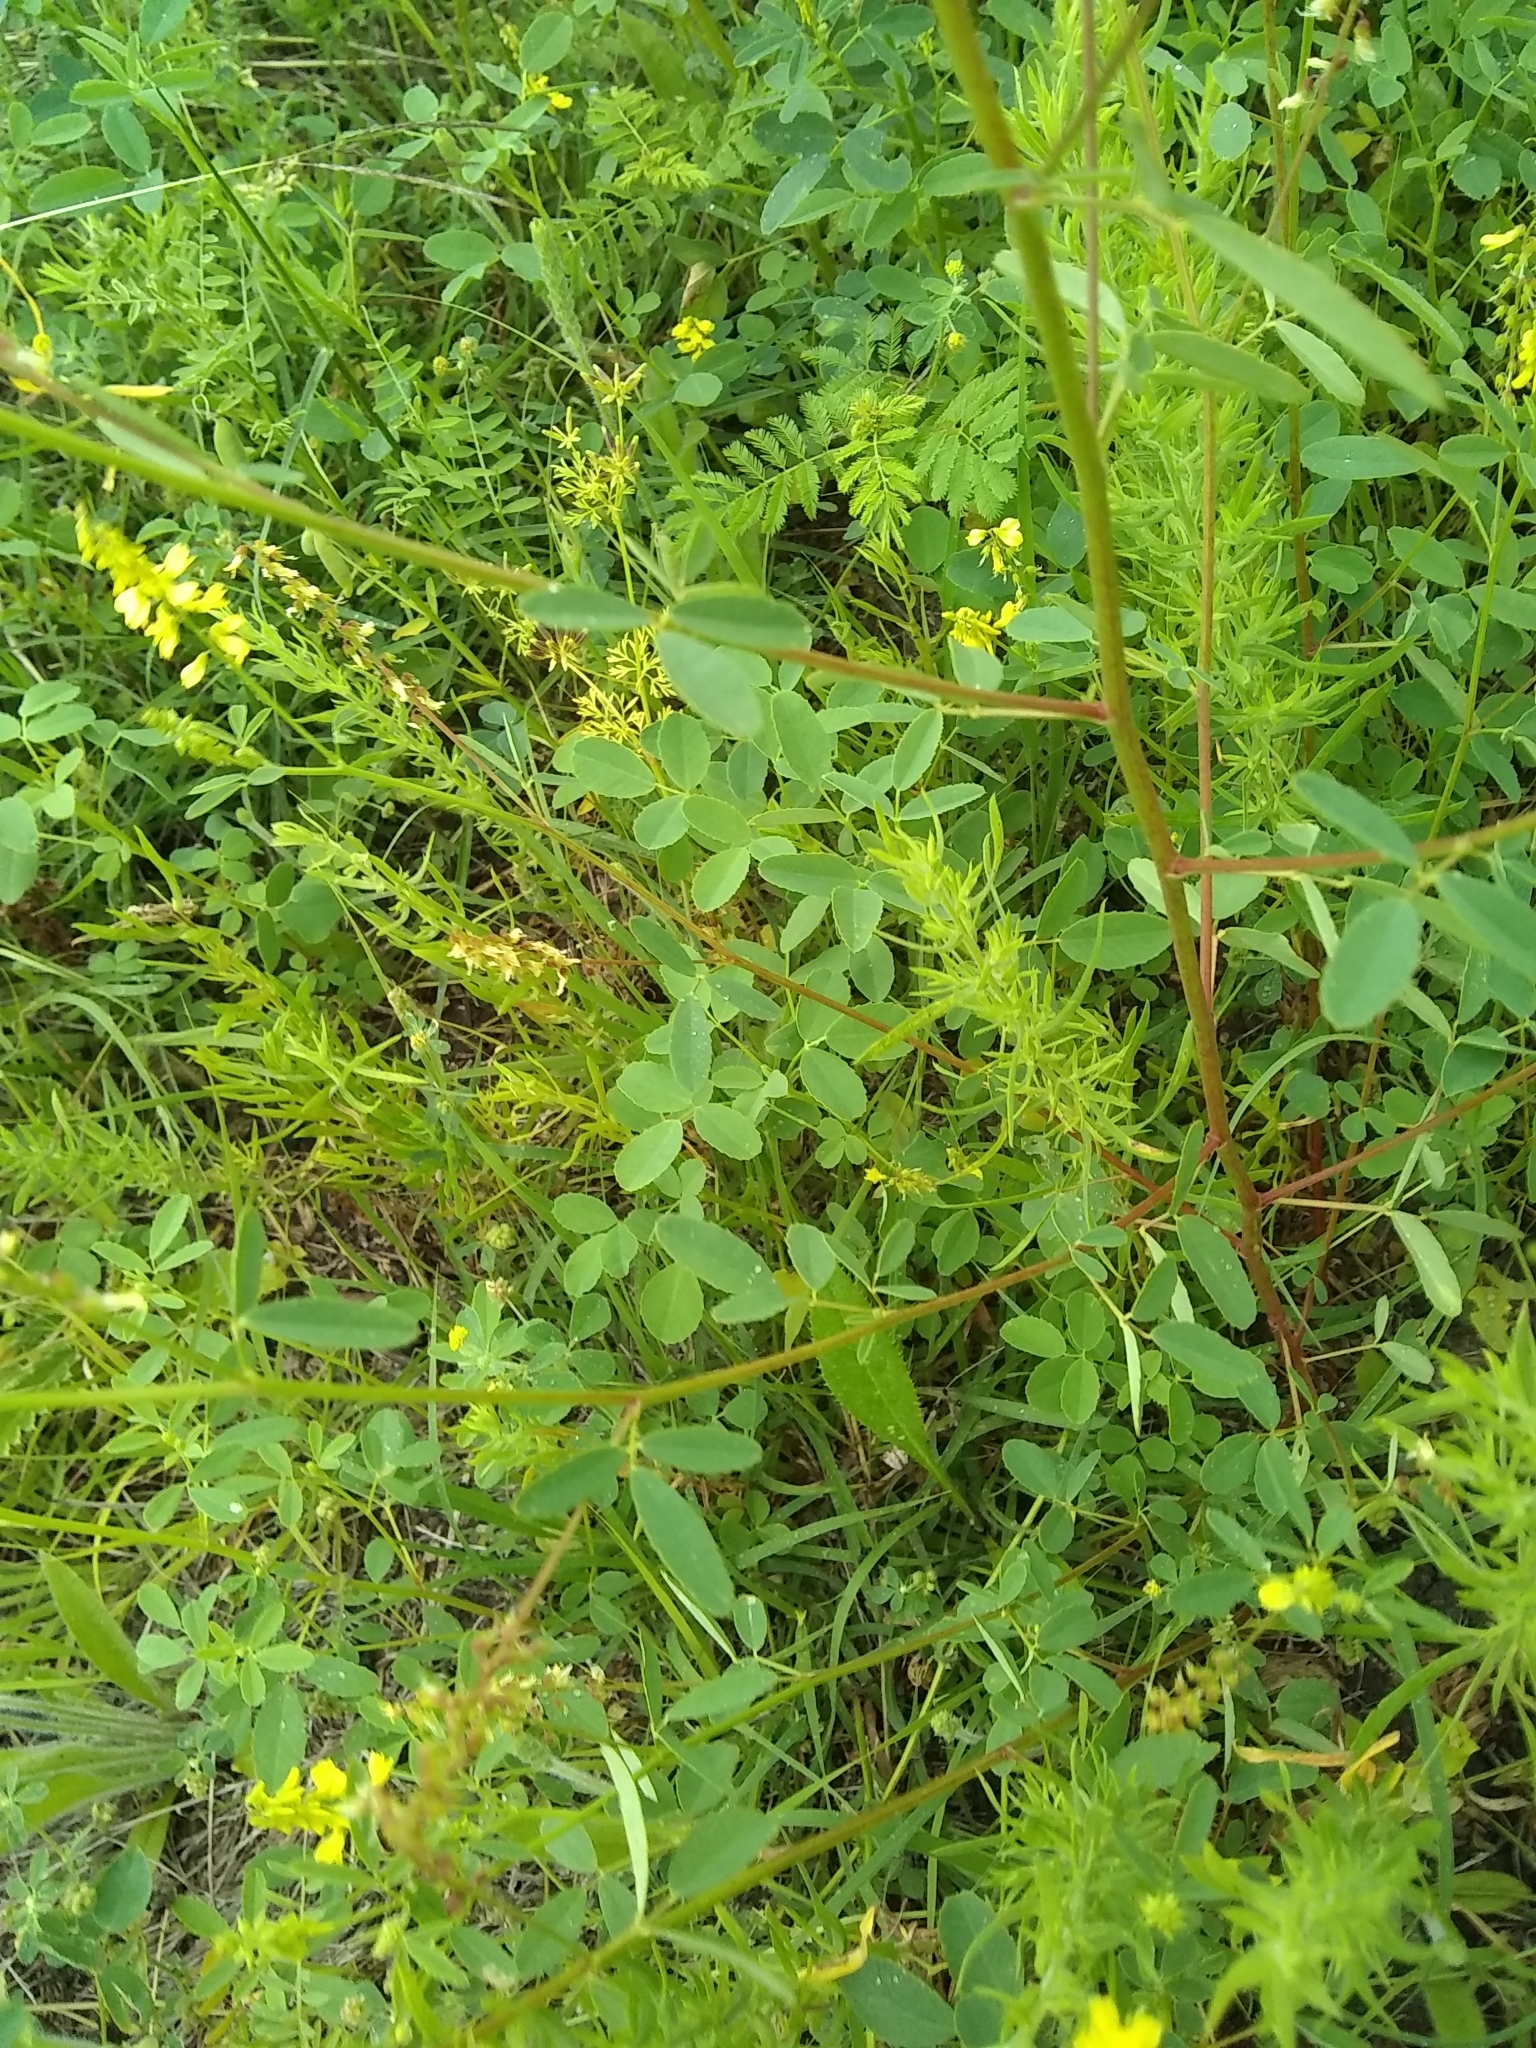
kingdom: Plantae
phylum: Tracheophyta
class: Magnoliopsida
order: Fabales
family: Fabaceae
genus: Melilotus
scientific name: Melilotus officinalis
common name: Sweetclover
